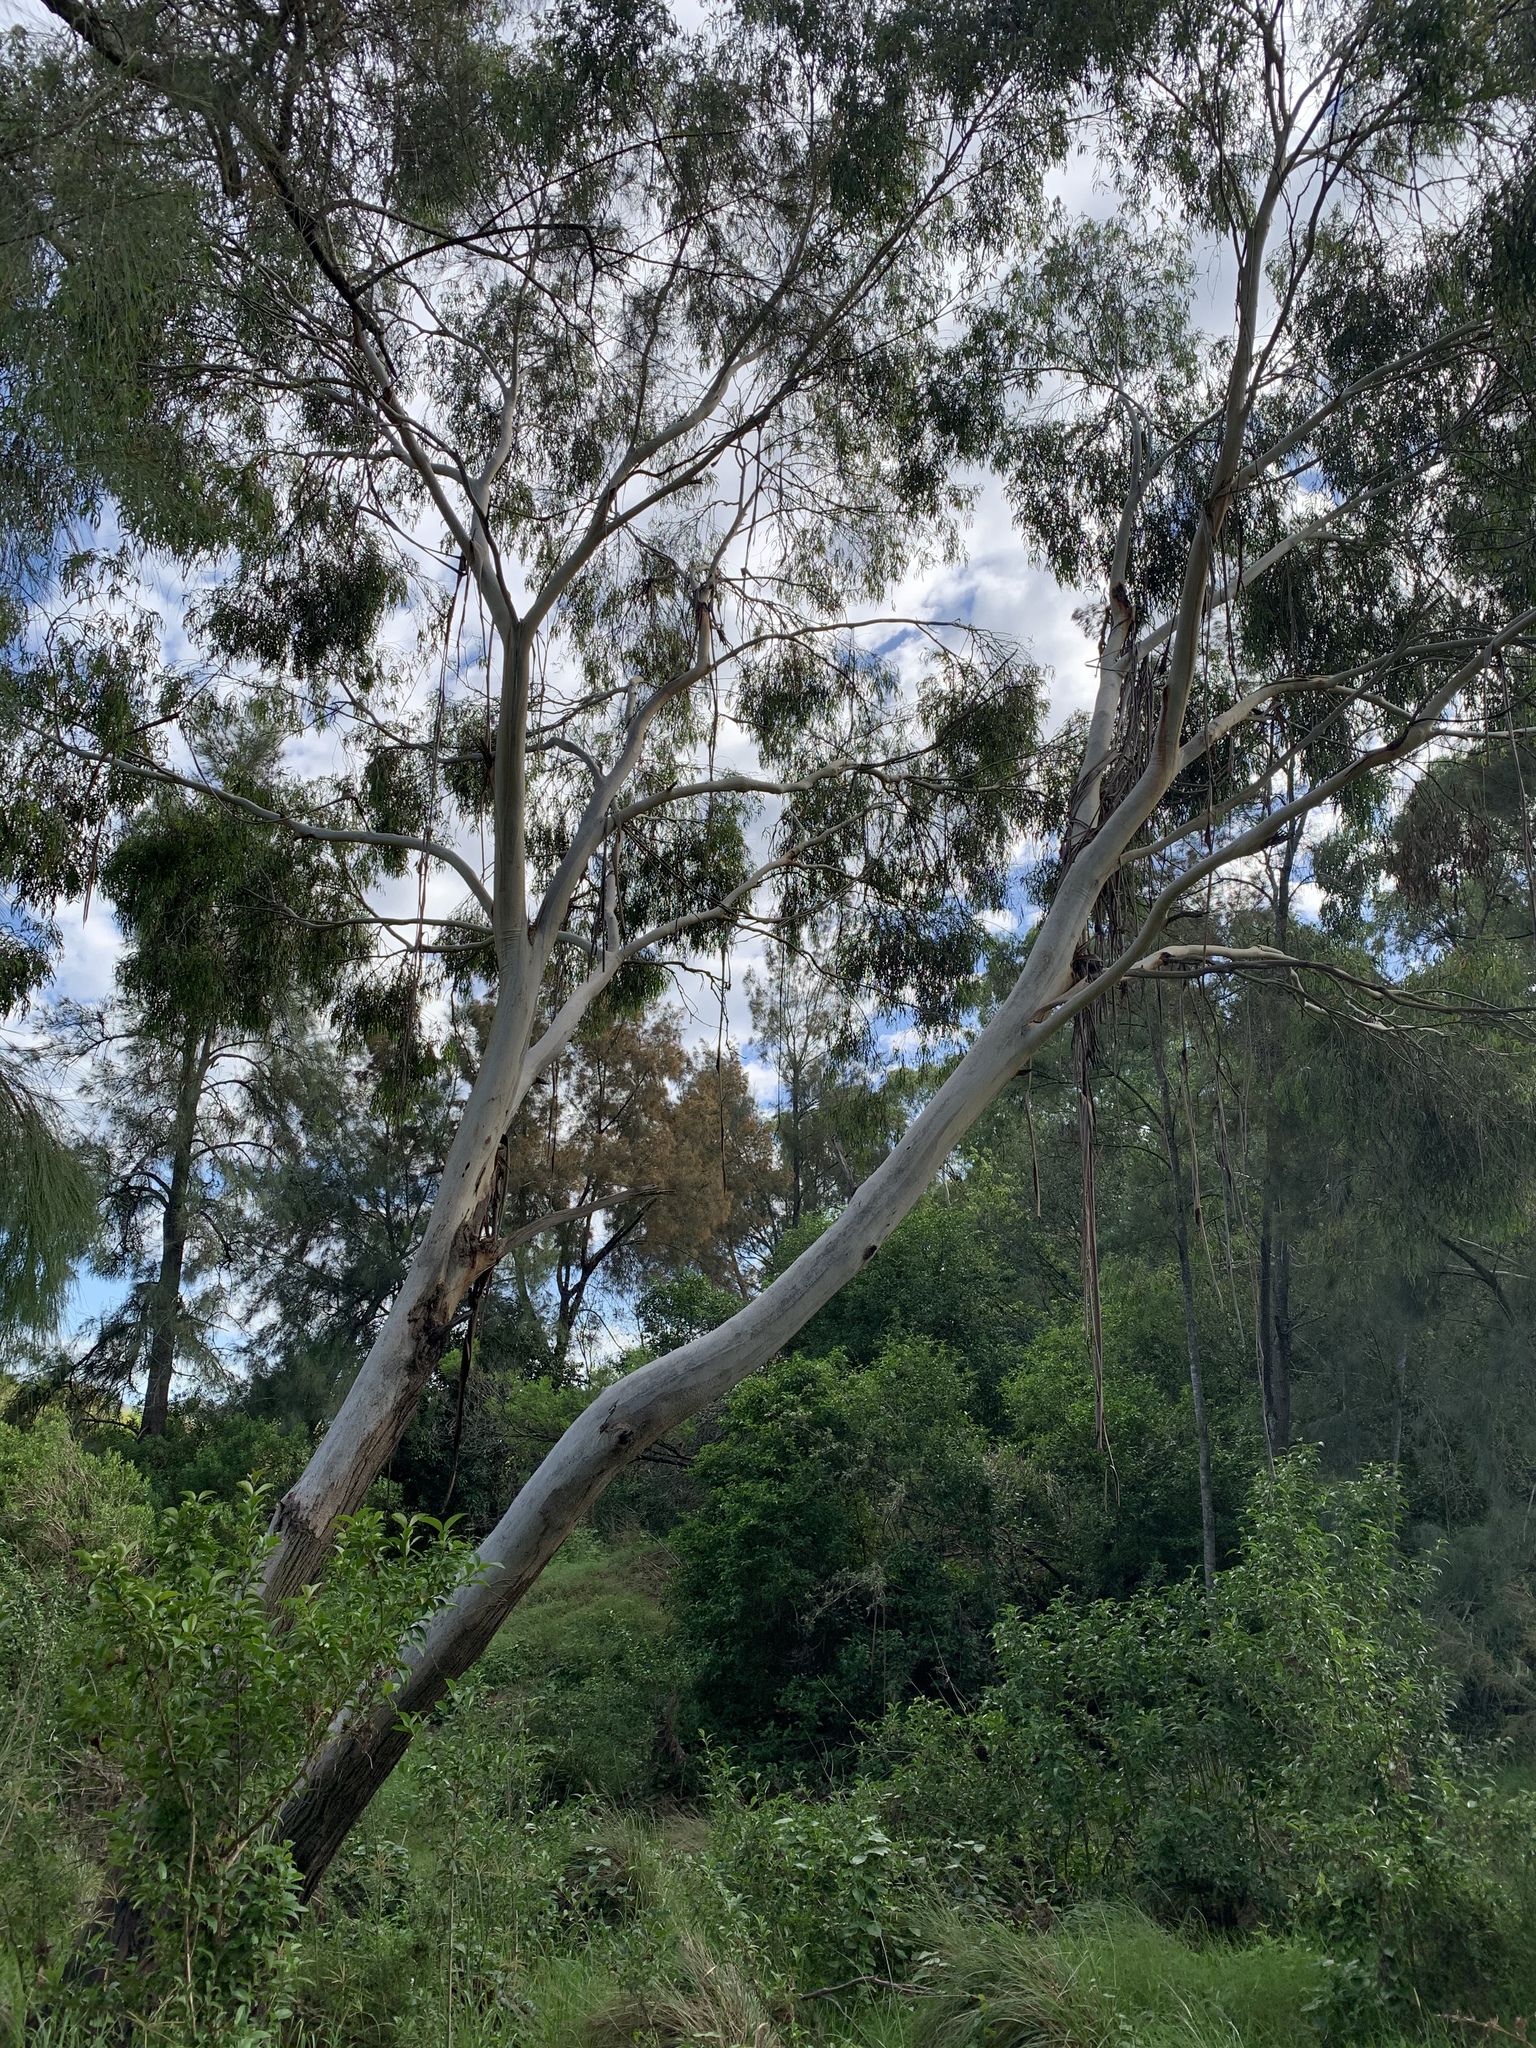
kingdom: Plantae
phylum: Tracheophyta
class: Magnoliopsida
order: Myrtales
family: Myrtaceae
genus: Eucalyptus
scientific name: Eucalyptus elata
